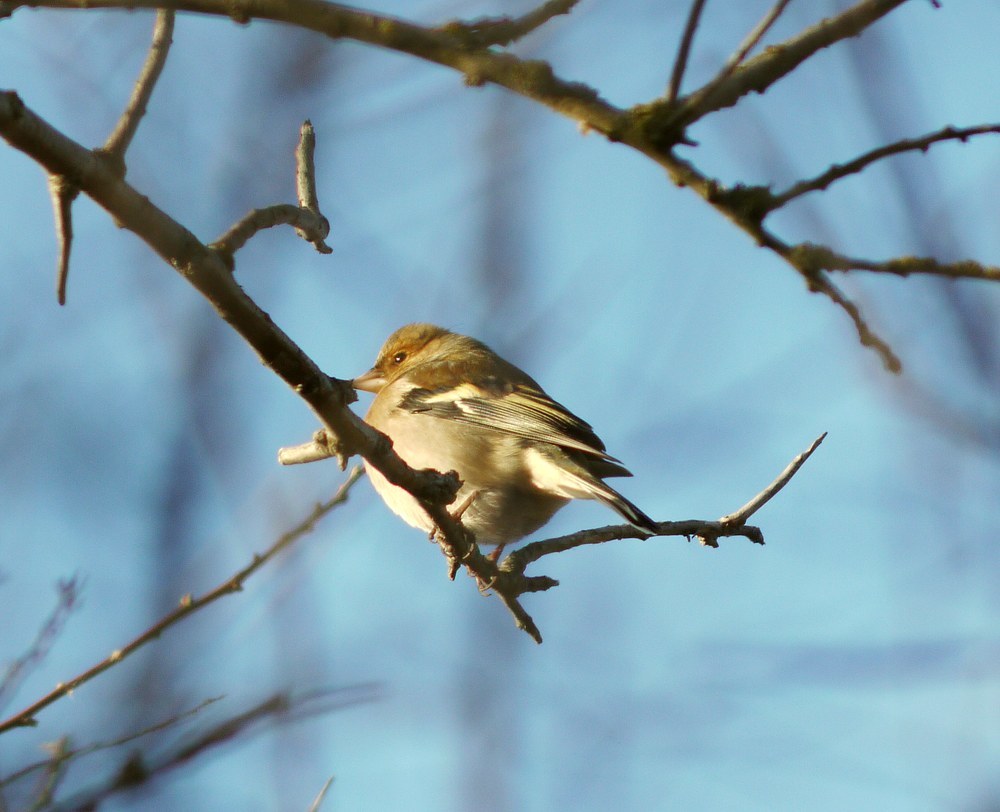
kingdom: Animalia
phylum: Chordata
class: Aves
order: Passeriformes
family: Fringillidae
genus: Fringilla
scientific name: Fringilla coelebs
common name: Common chaffinch
